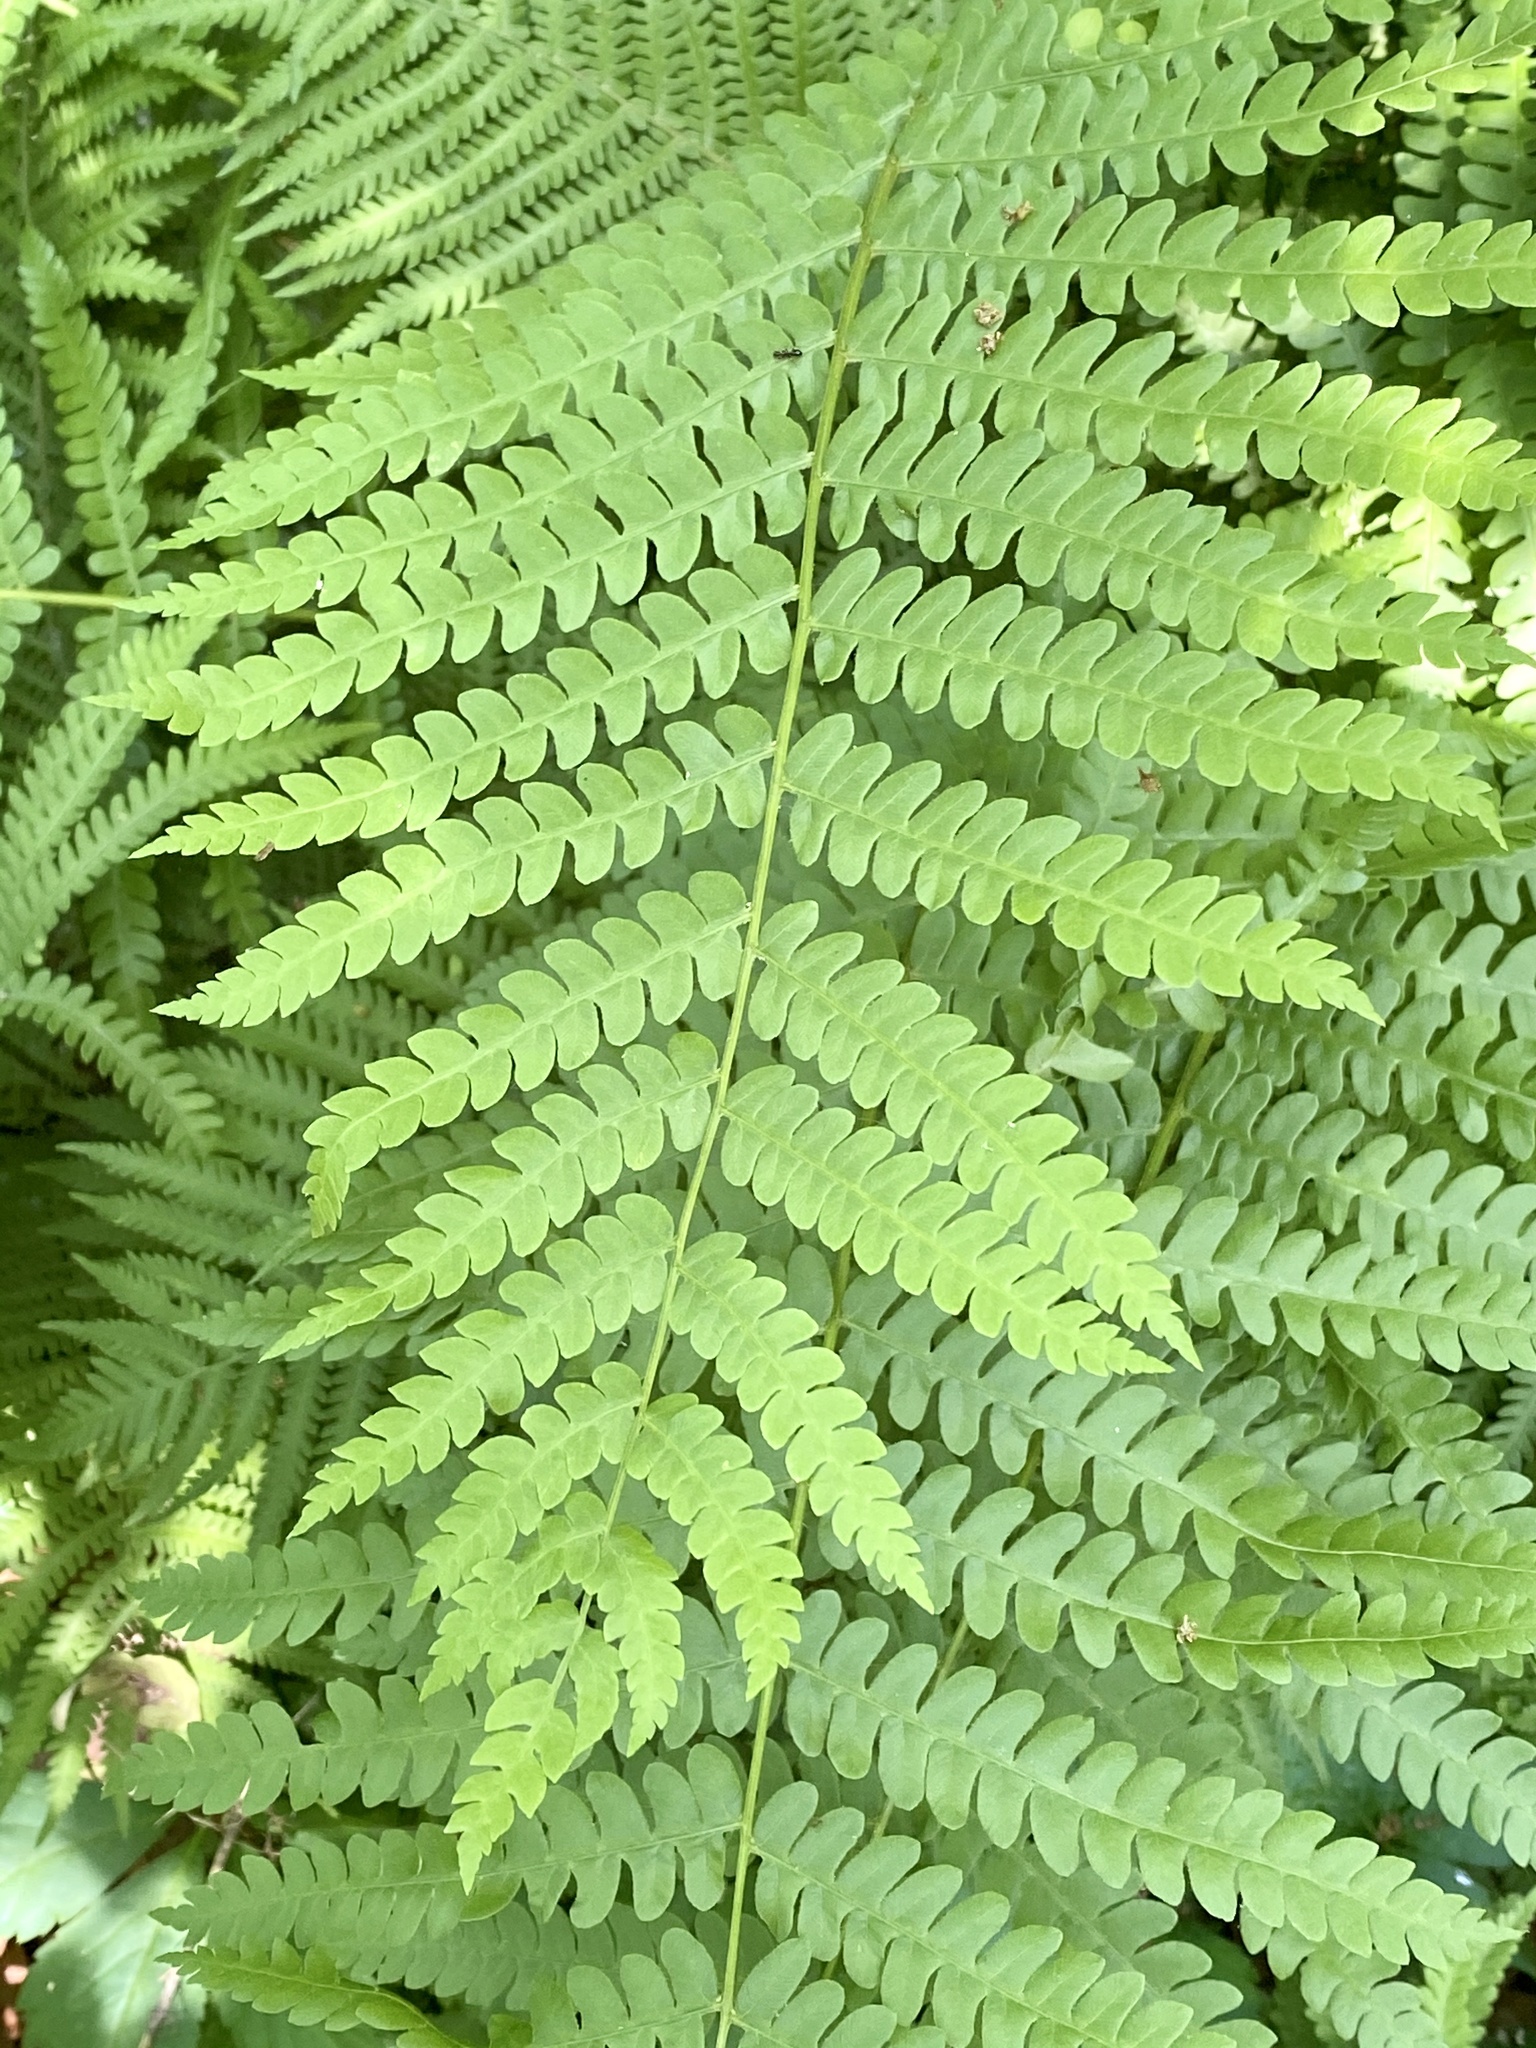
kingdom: Plantae
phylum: Tracheophyta
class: Polypodiopsida
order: Osmundales
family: Osmundaceae
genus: Osmundastrum
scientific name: Osmundastrum cinnamomeum
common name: Cinnamon fern
